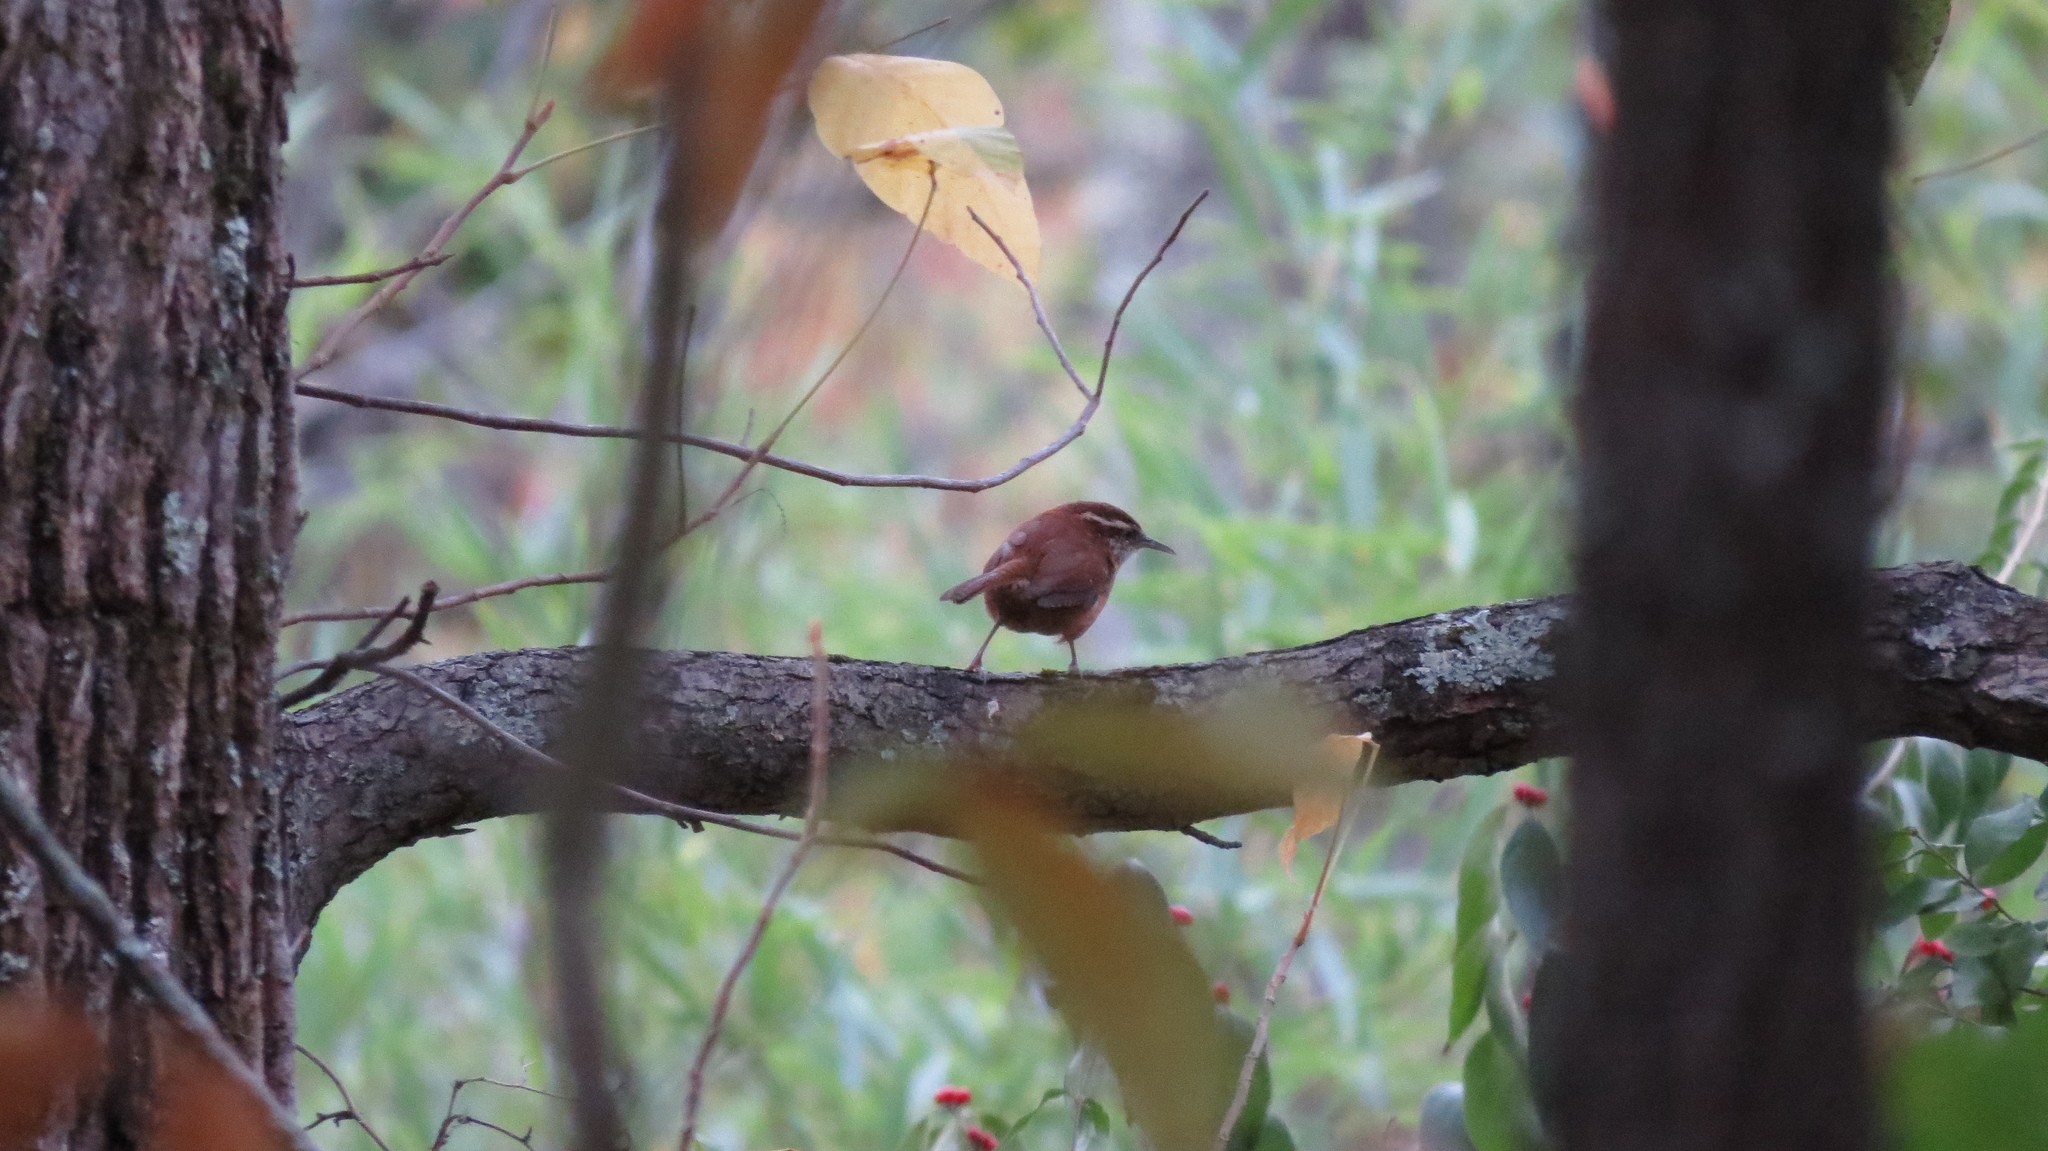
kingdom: Animalia
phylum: Chordata
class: Aves
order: Passeriformes
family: Troglodytidae
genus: Thryothorus
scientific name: Thryothorus ludovicianus
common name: Carolina wren
